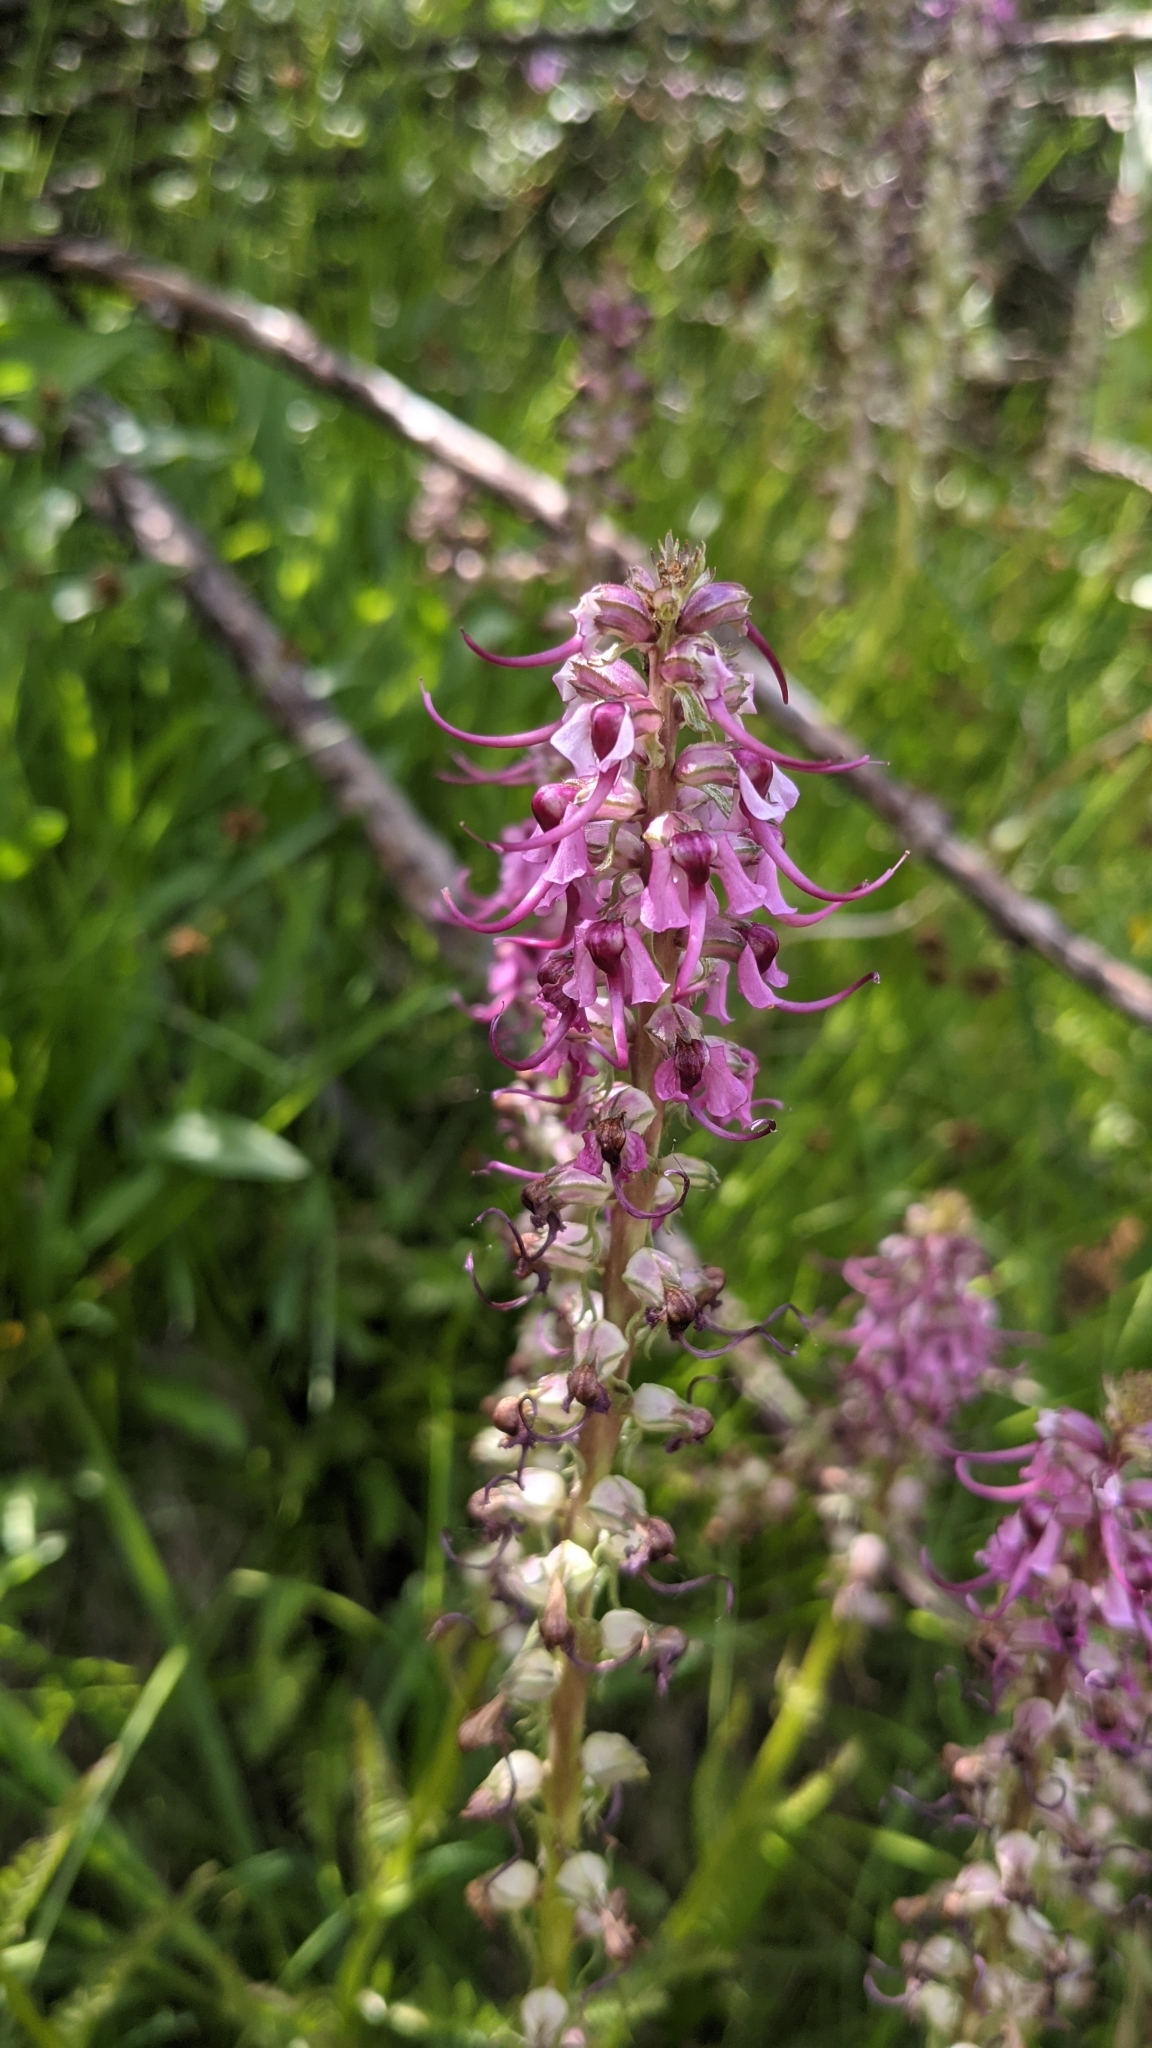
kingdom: Plantae
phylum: Tracheophyta
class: Magnoliopsida
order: Lamiales
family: Orobanchaceae
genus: Pedicularis
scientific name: Pedicularis groenlandica
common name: Elephant's-head
